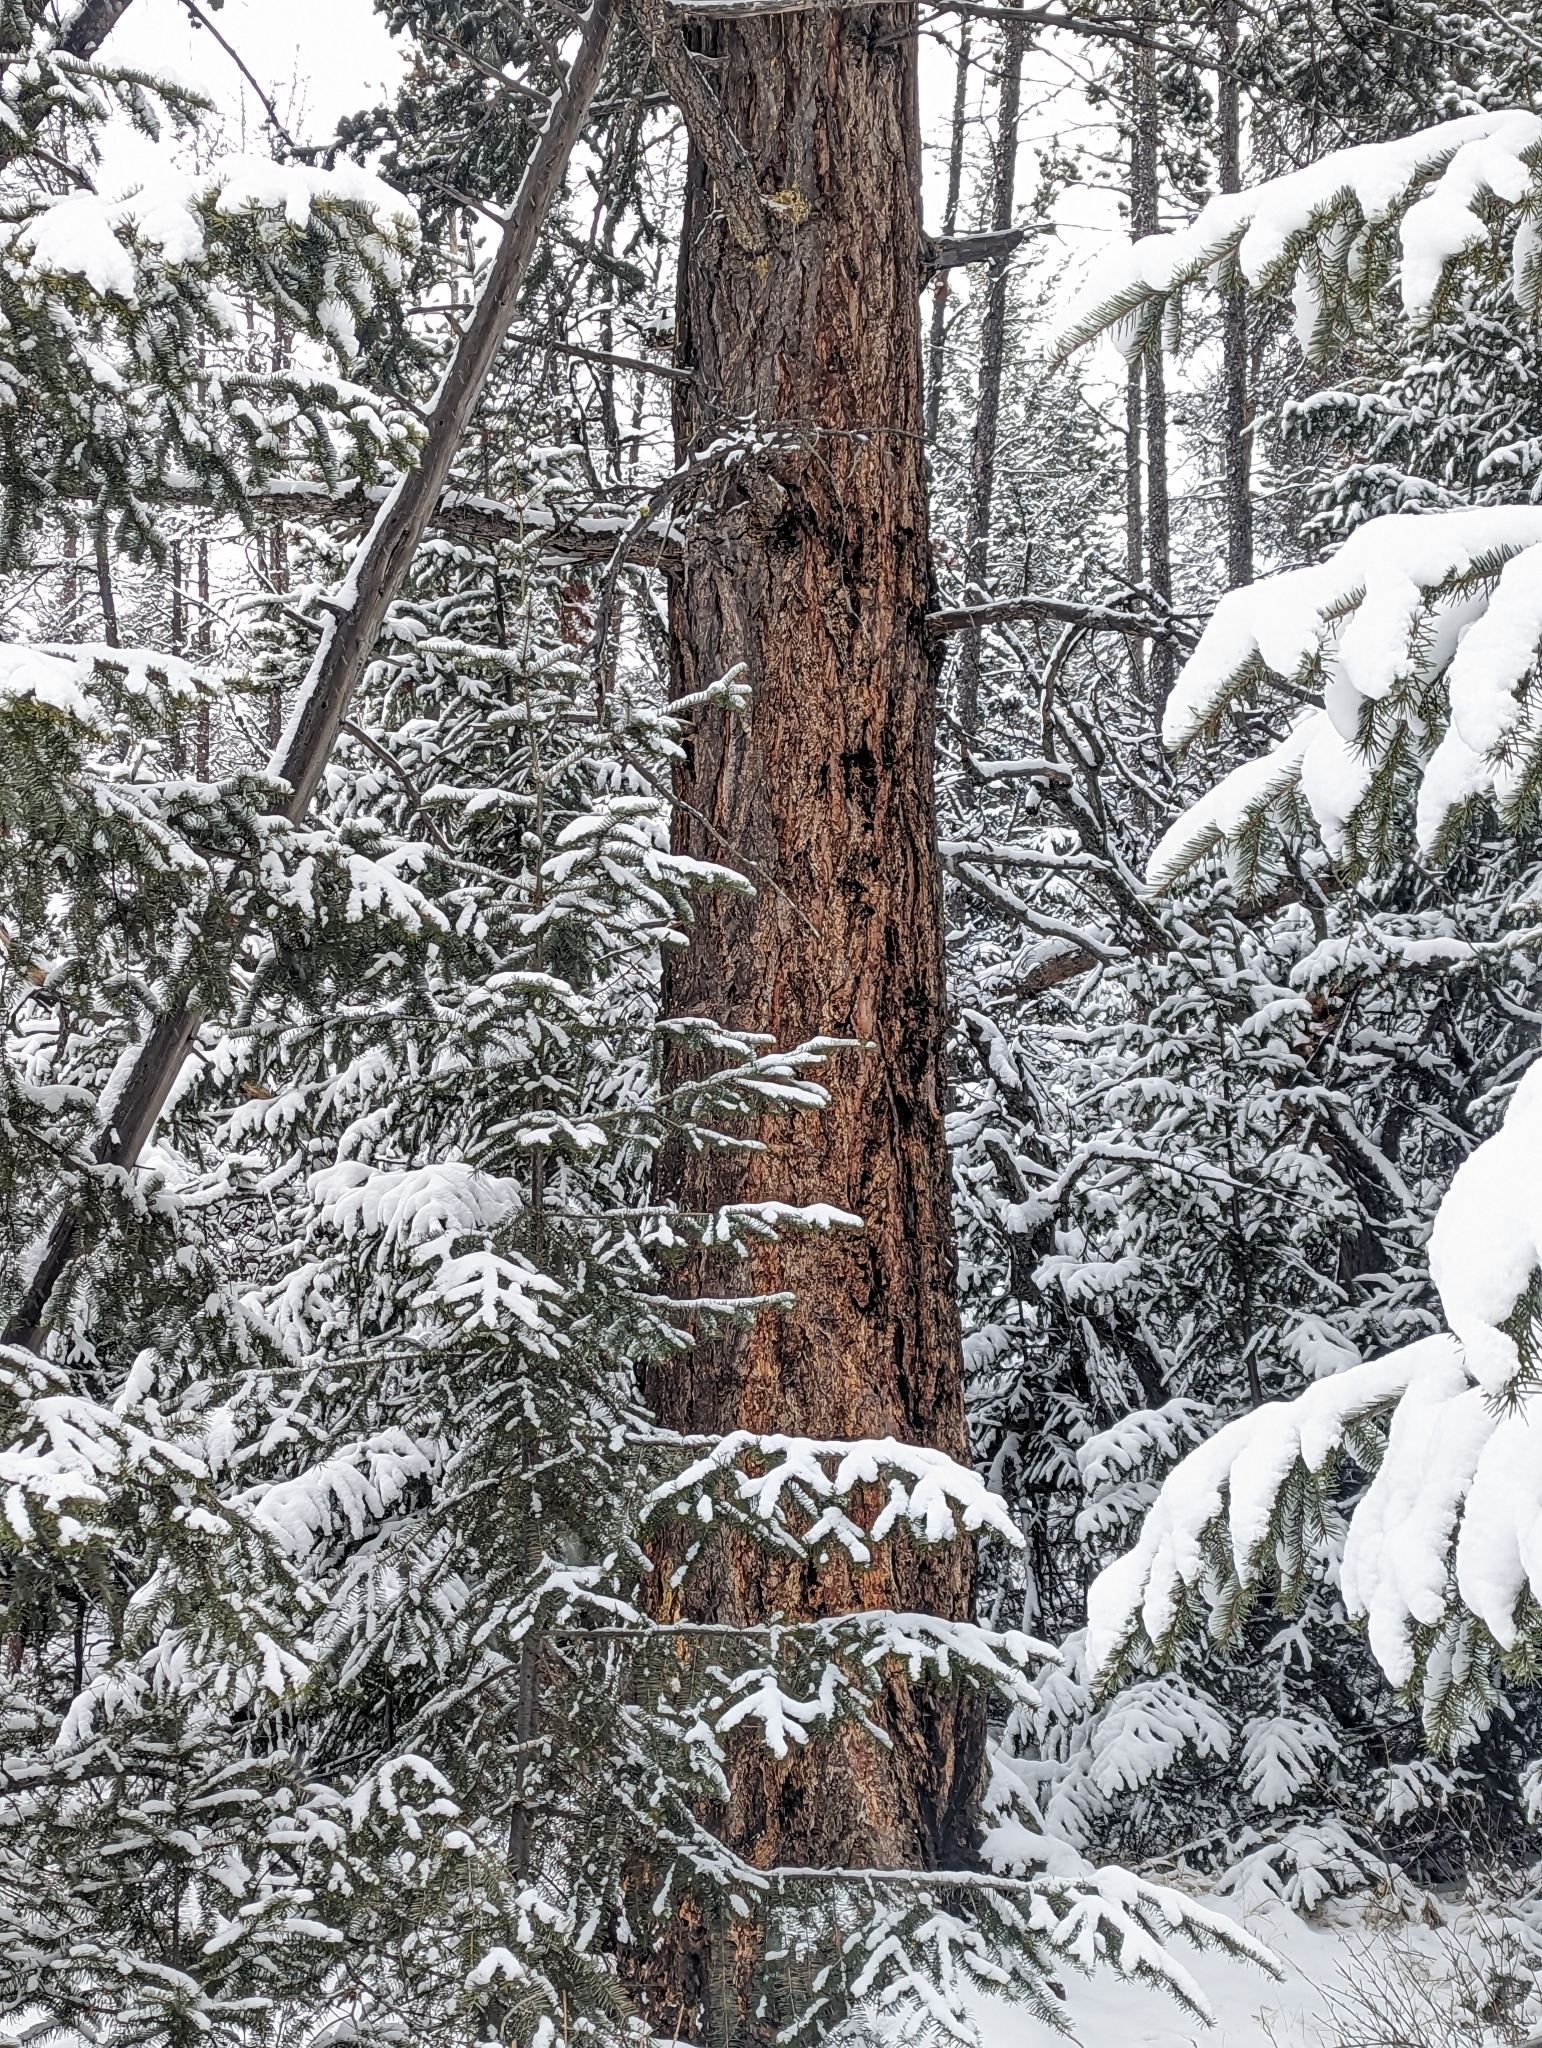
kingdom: Plantae
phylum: Tracheophyta
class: Pinopsida
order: Pinales
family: Pinaceae
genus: Pseudotsuga
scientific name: Pseudotsuga menziesii
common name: Douglas fir
